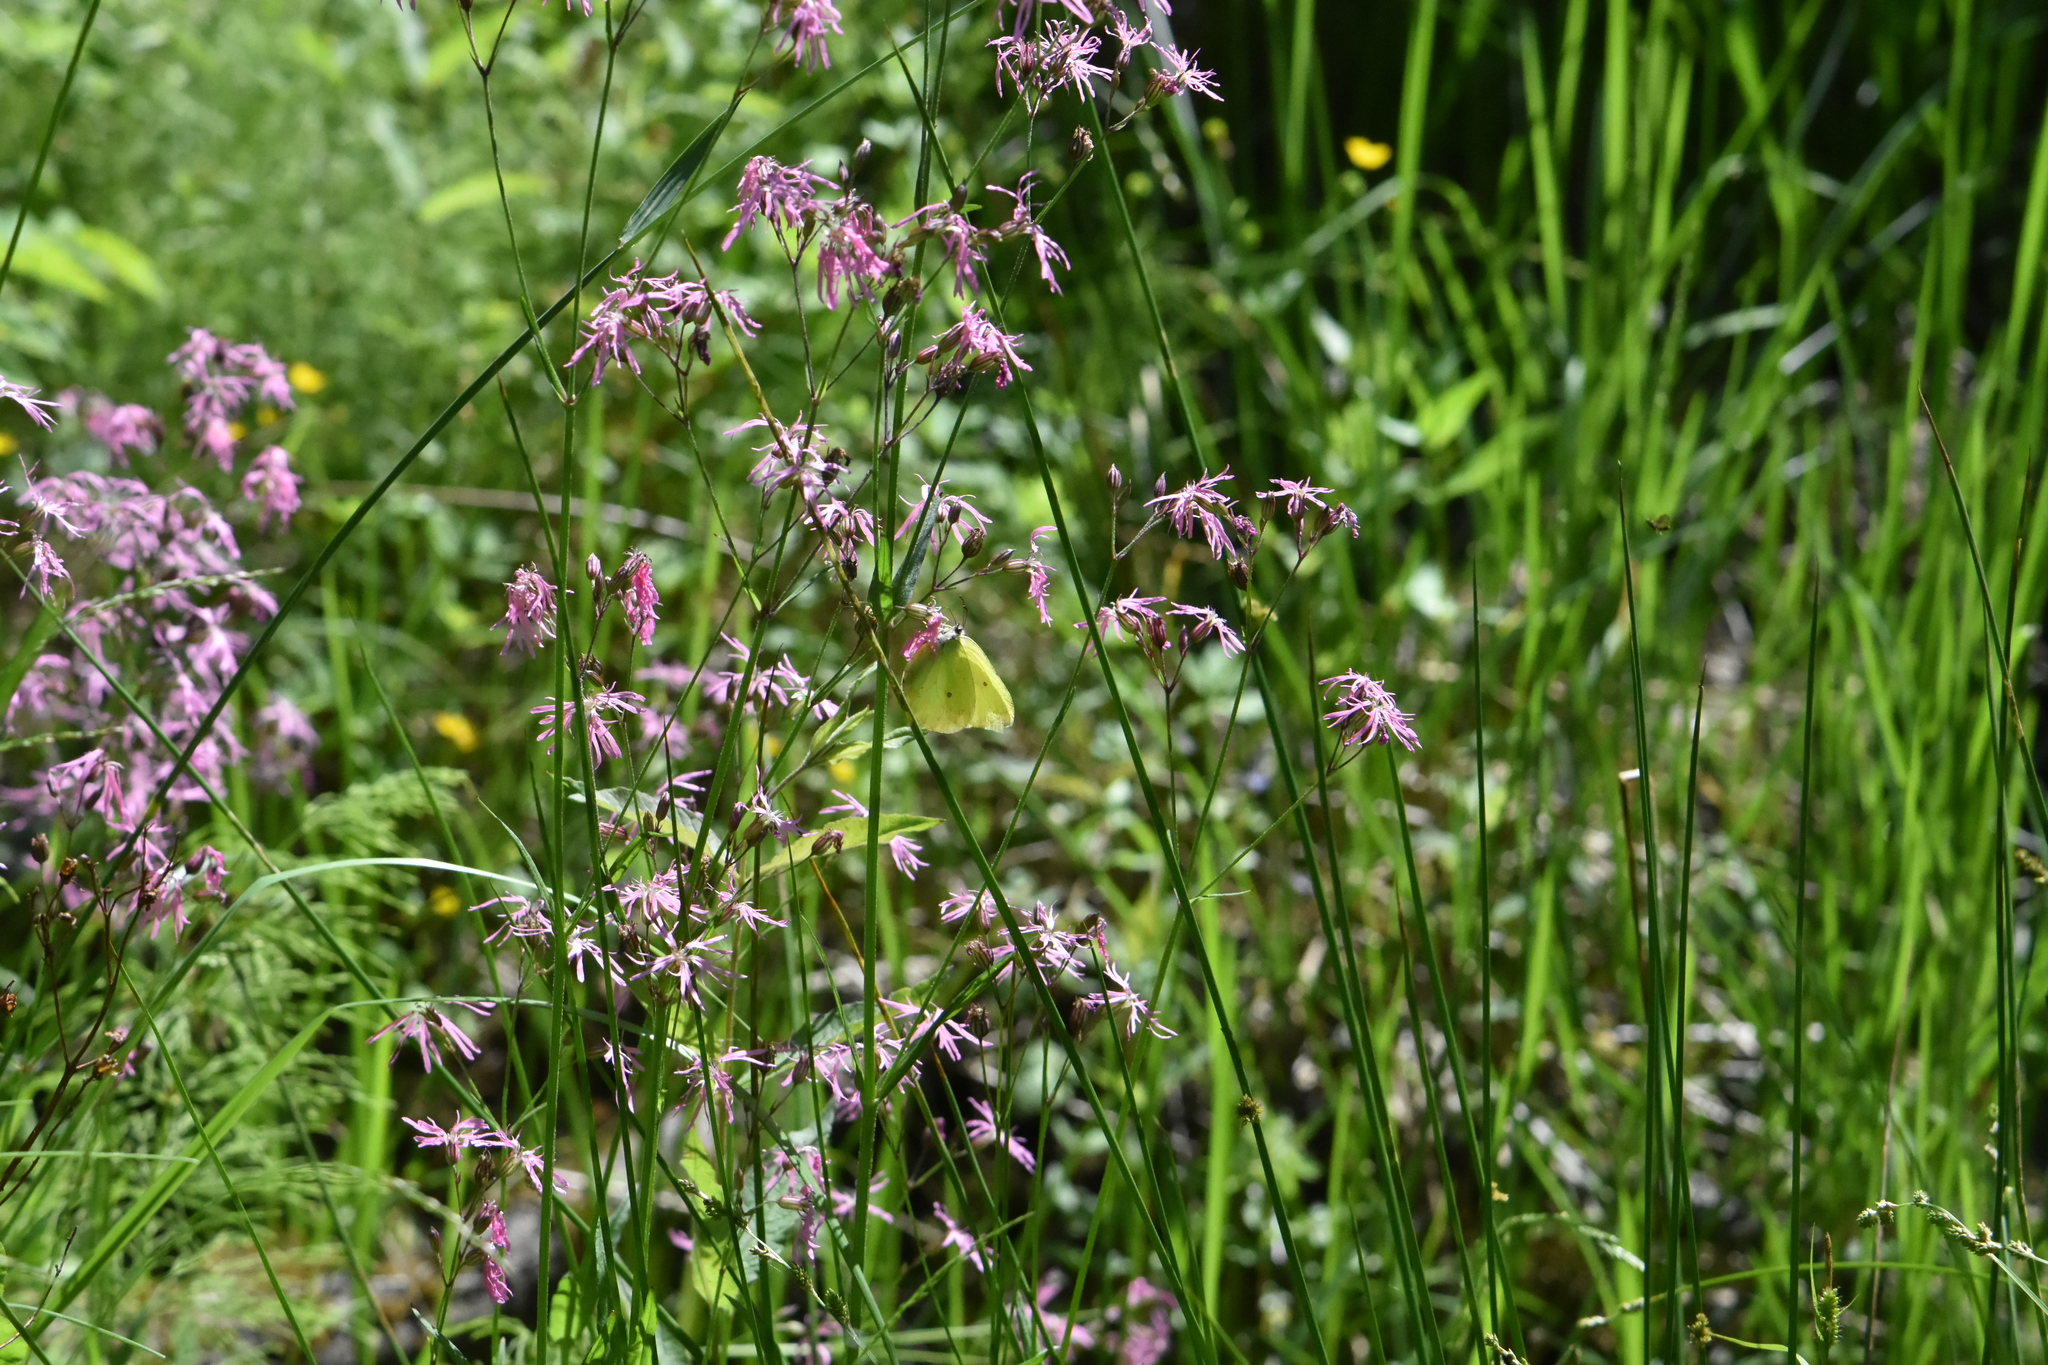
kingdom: Plantae
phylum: Tracheophyta
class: Magnoliopsida
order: Caryophyllales
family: Caryophyllaceae
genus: Silene
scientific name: Silene flos-cuculi
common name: Ragged-robin
